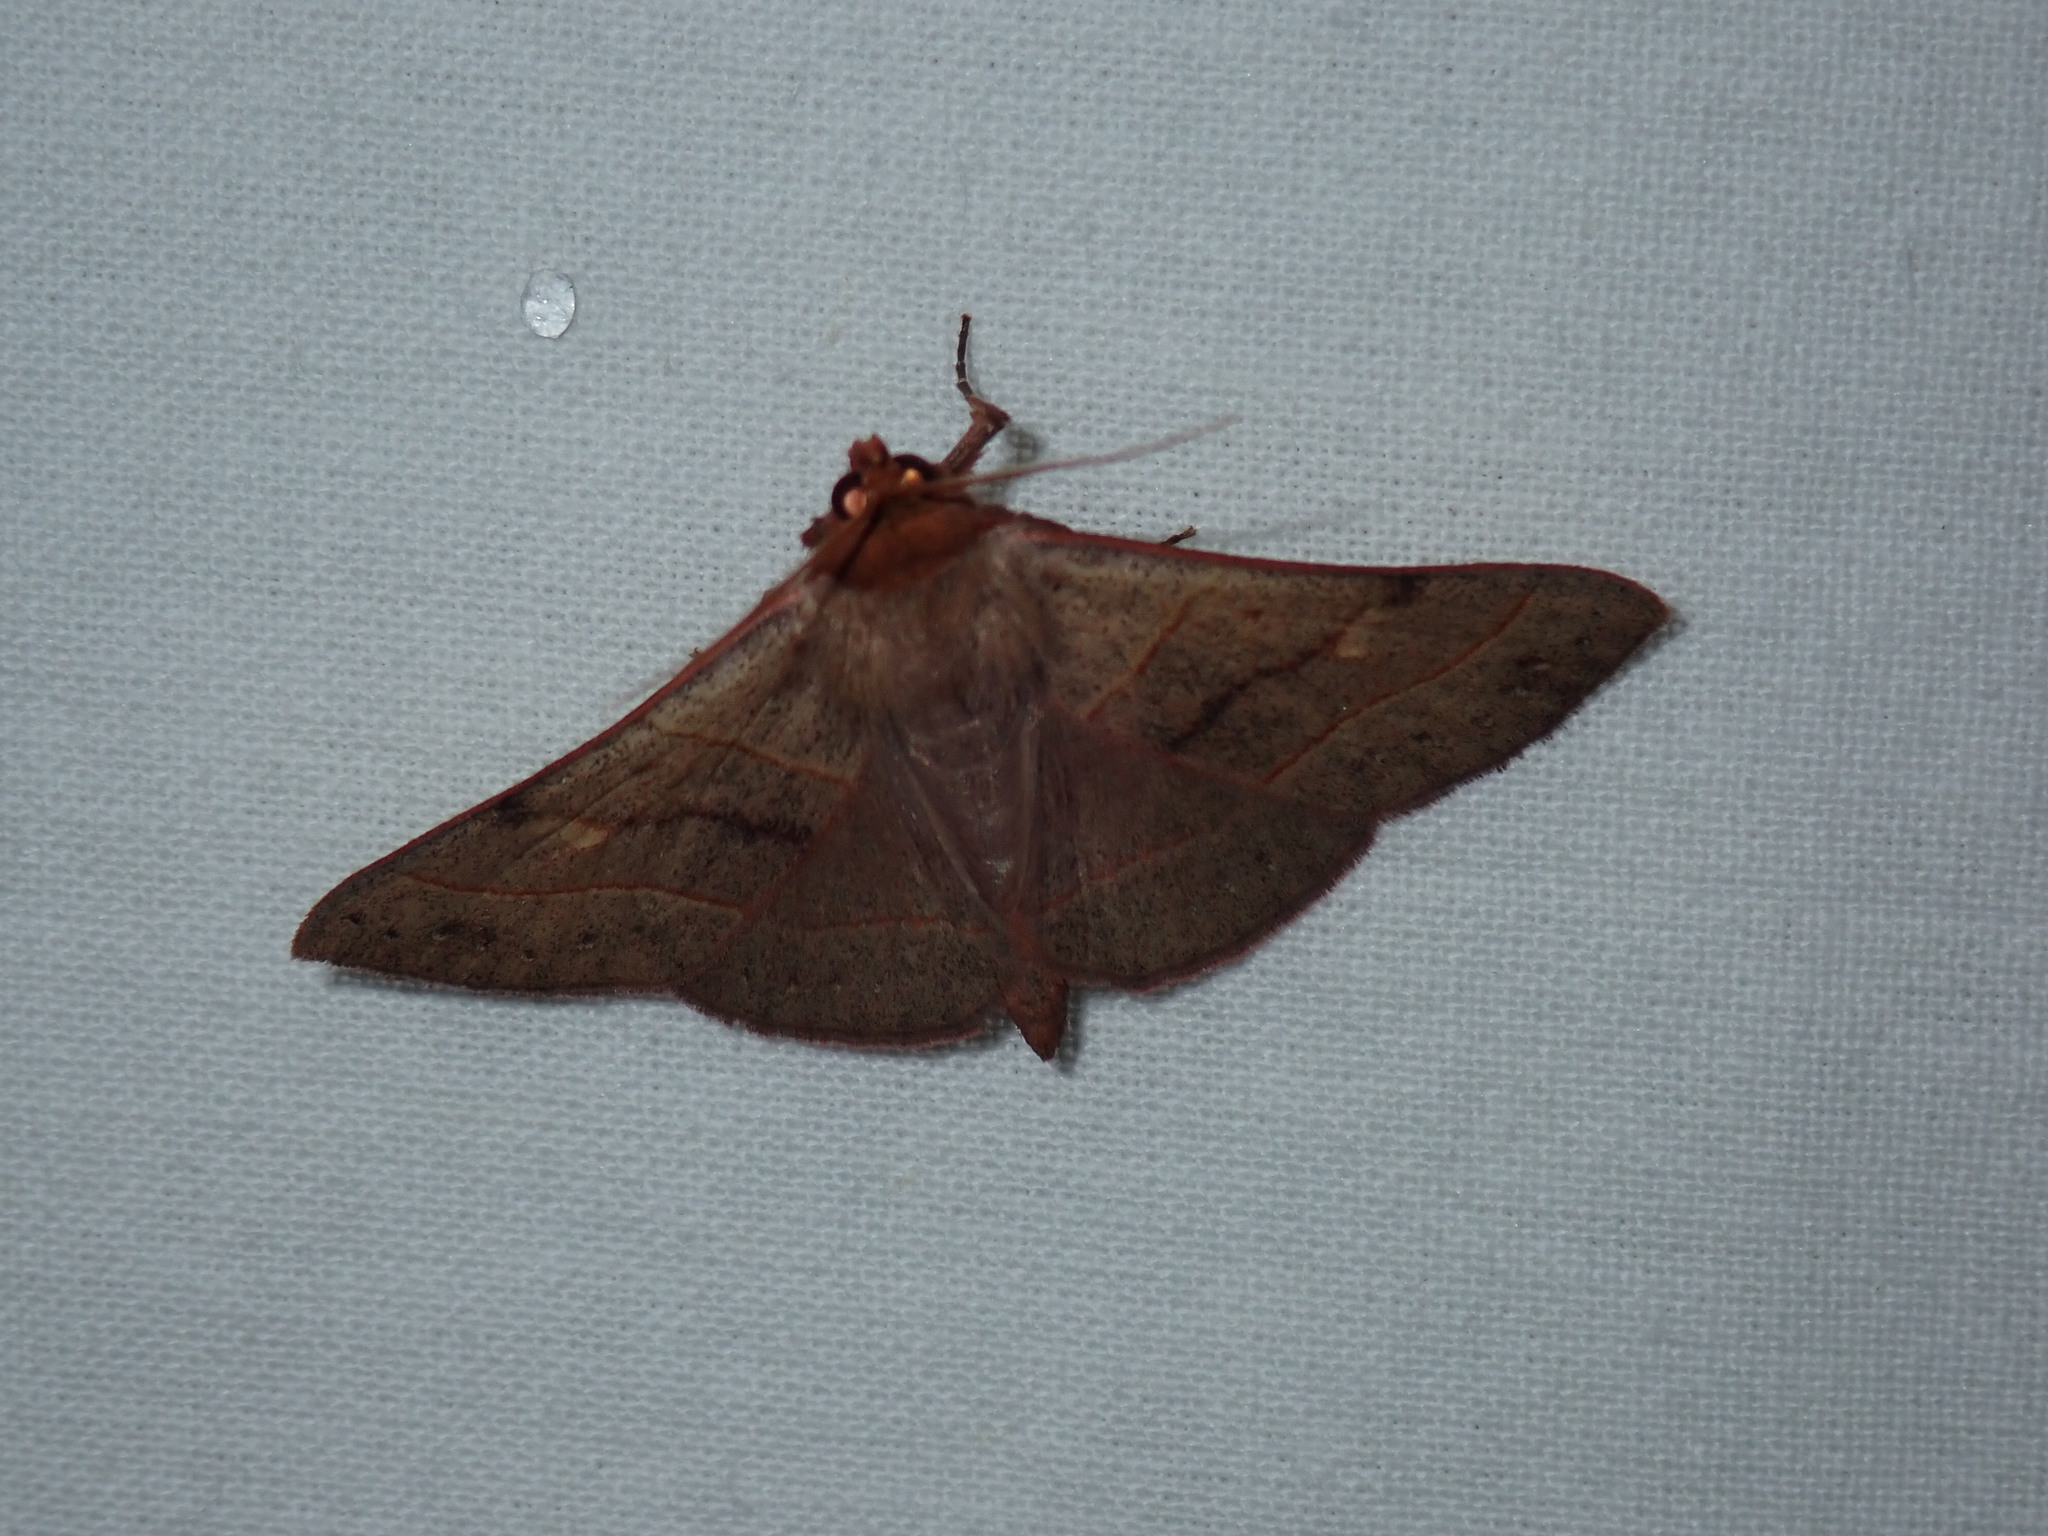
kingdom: Animalia
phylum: Arthropoda
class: Insecta
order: Lepidoptera
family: Erebidae
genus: Panopoda
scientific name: Panopoda rufimargo
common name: Red-lined panopoda moth
